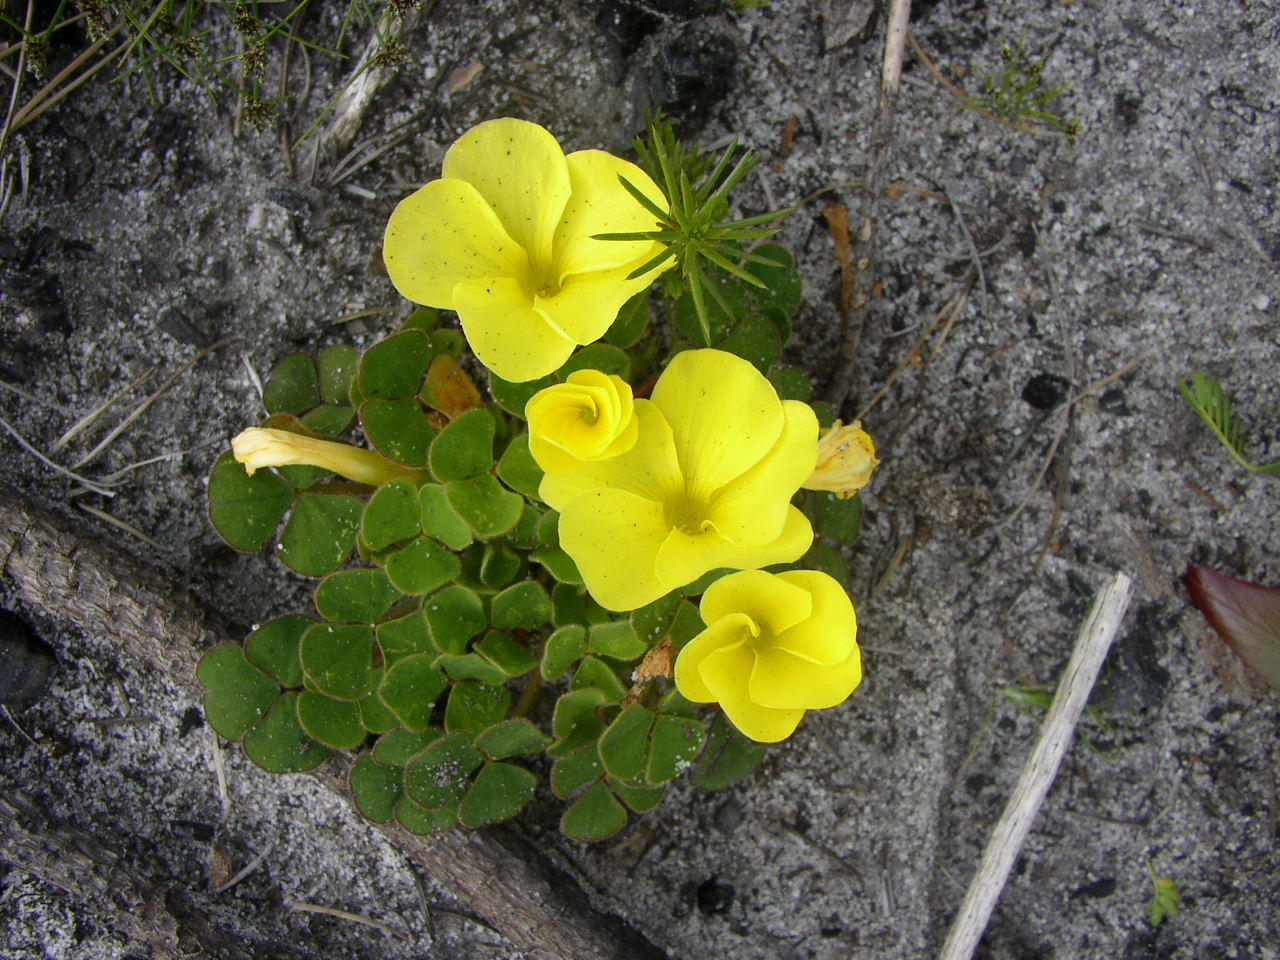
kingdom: Plantae
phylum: Tracheophyta
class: Magnoliopsida
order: Oxalidales
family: Oxalidaceae
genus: Oxalis
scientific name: Oxalis luteola
